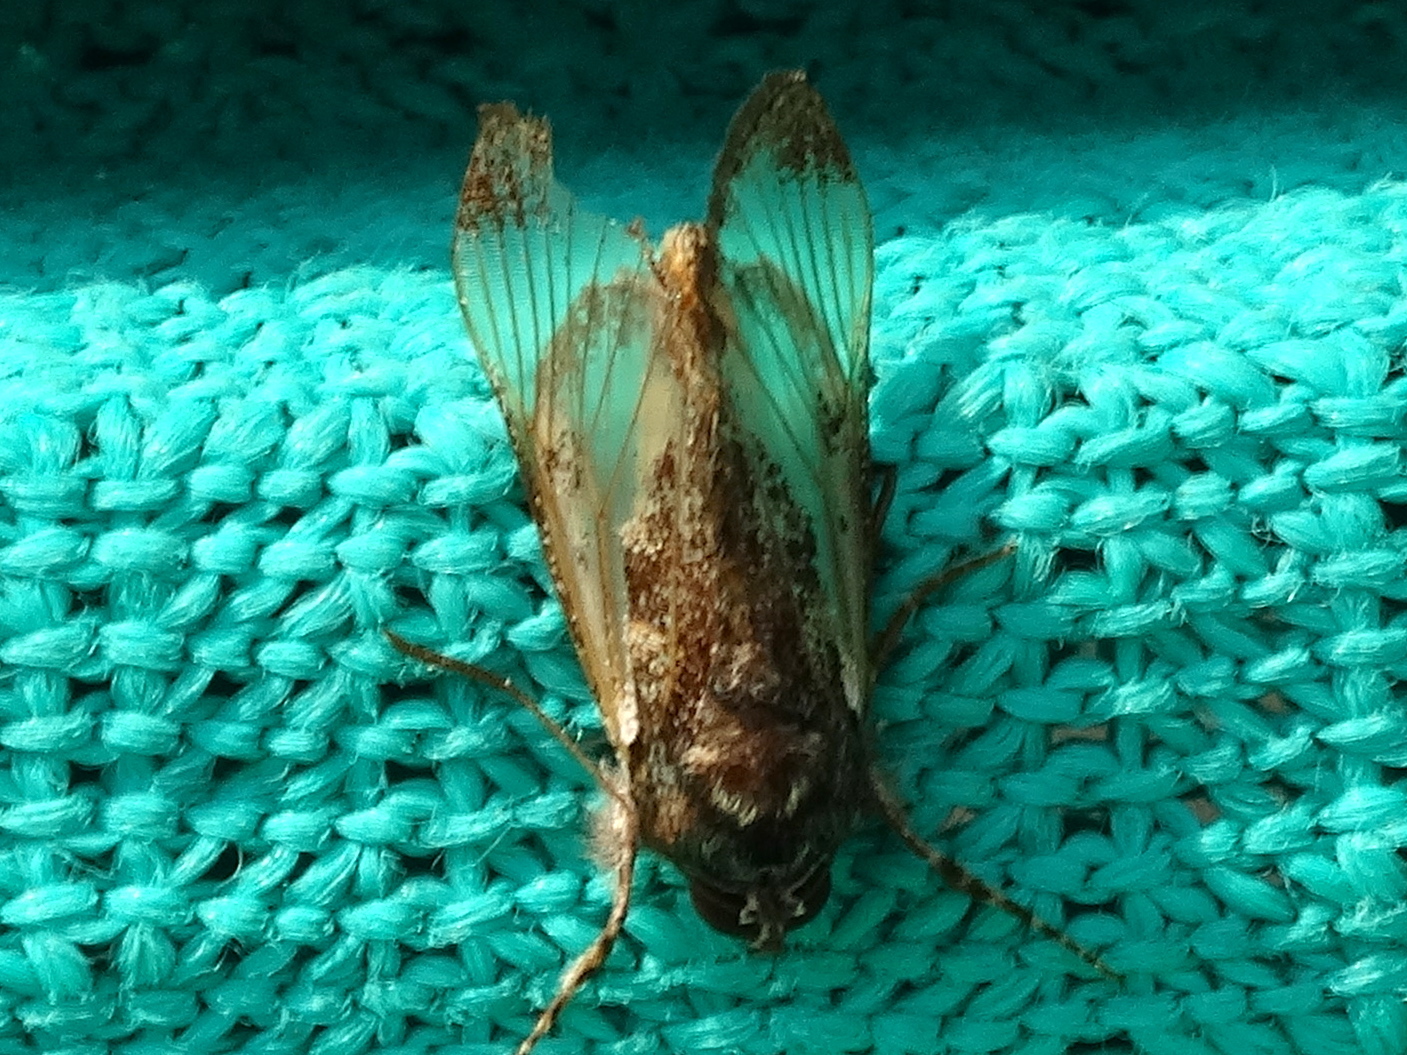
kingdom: Animalia
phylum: Arthropoda
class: Insecta
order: Lepidoptera
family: Noctuidae
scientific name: Noctuidae
